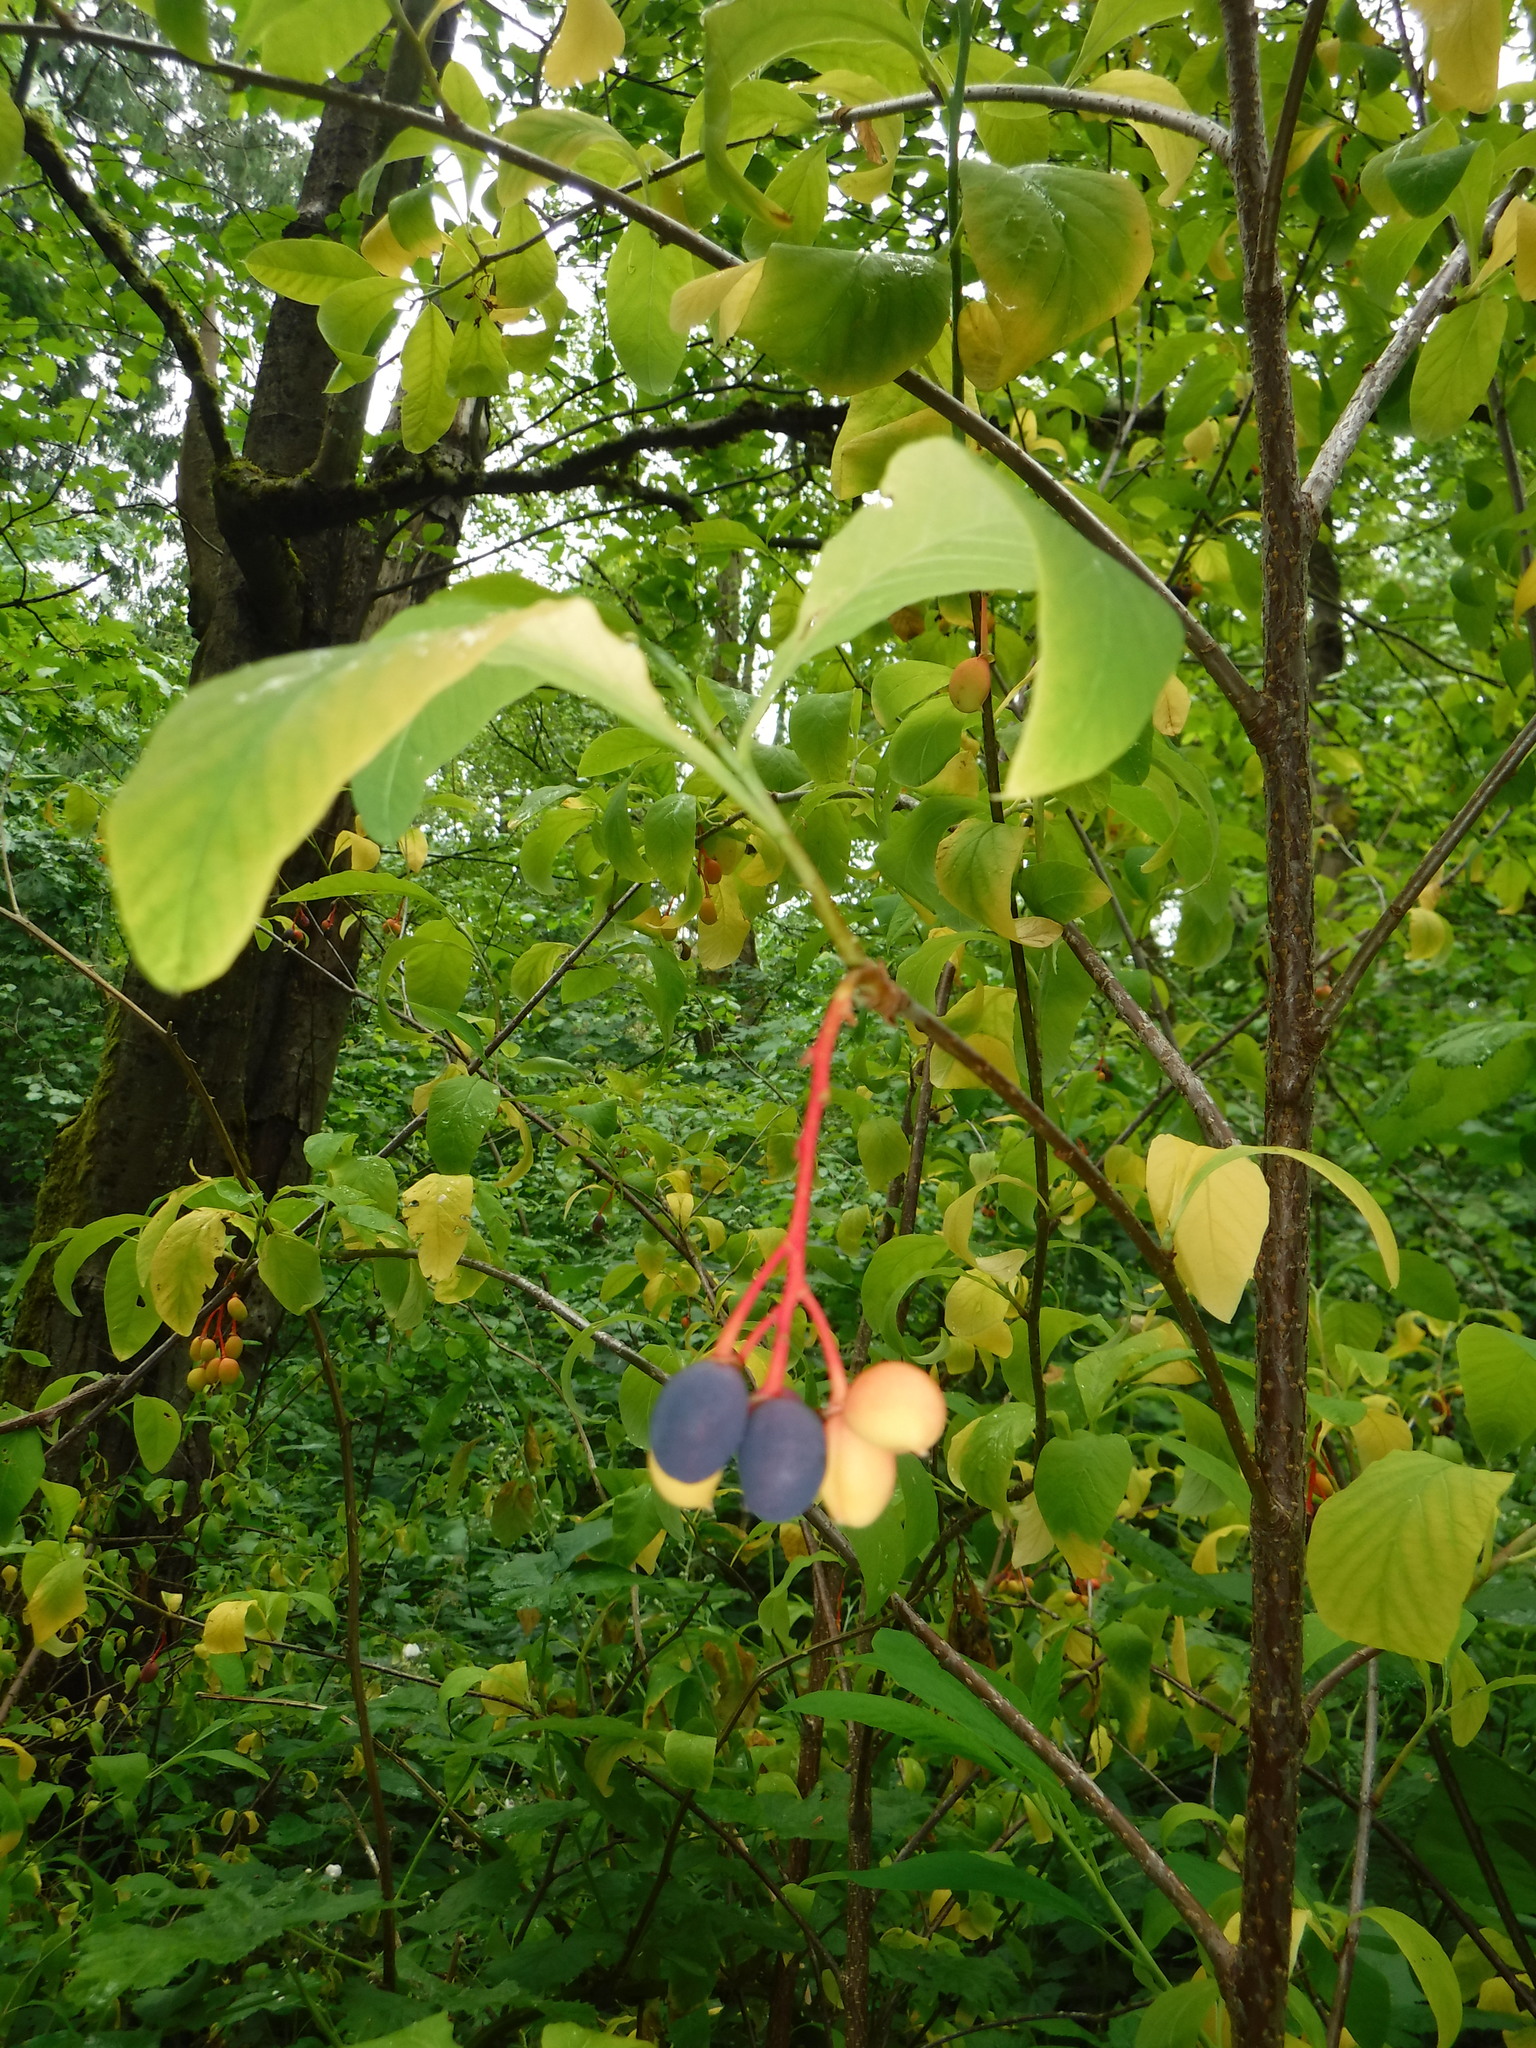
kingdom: Plantae
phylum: Tracheophyta
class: Magnoliopsida
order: Rosales
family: Rosaceae
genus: Oemleria
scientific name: Oemleria cerasiformis
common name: Osoberry
